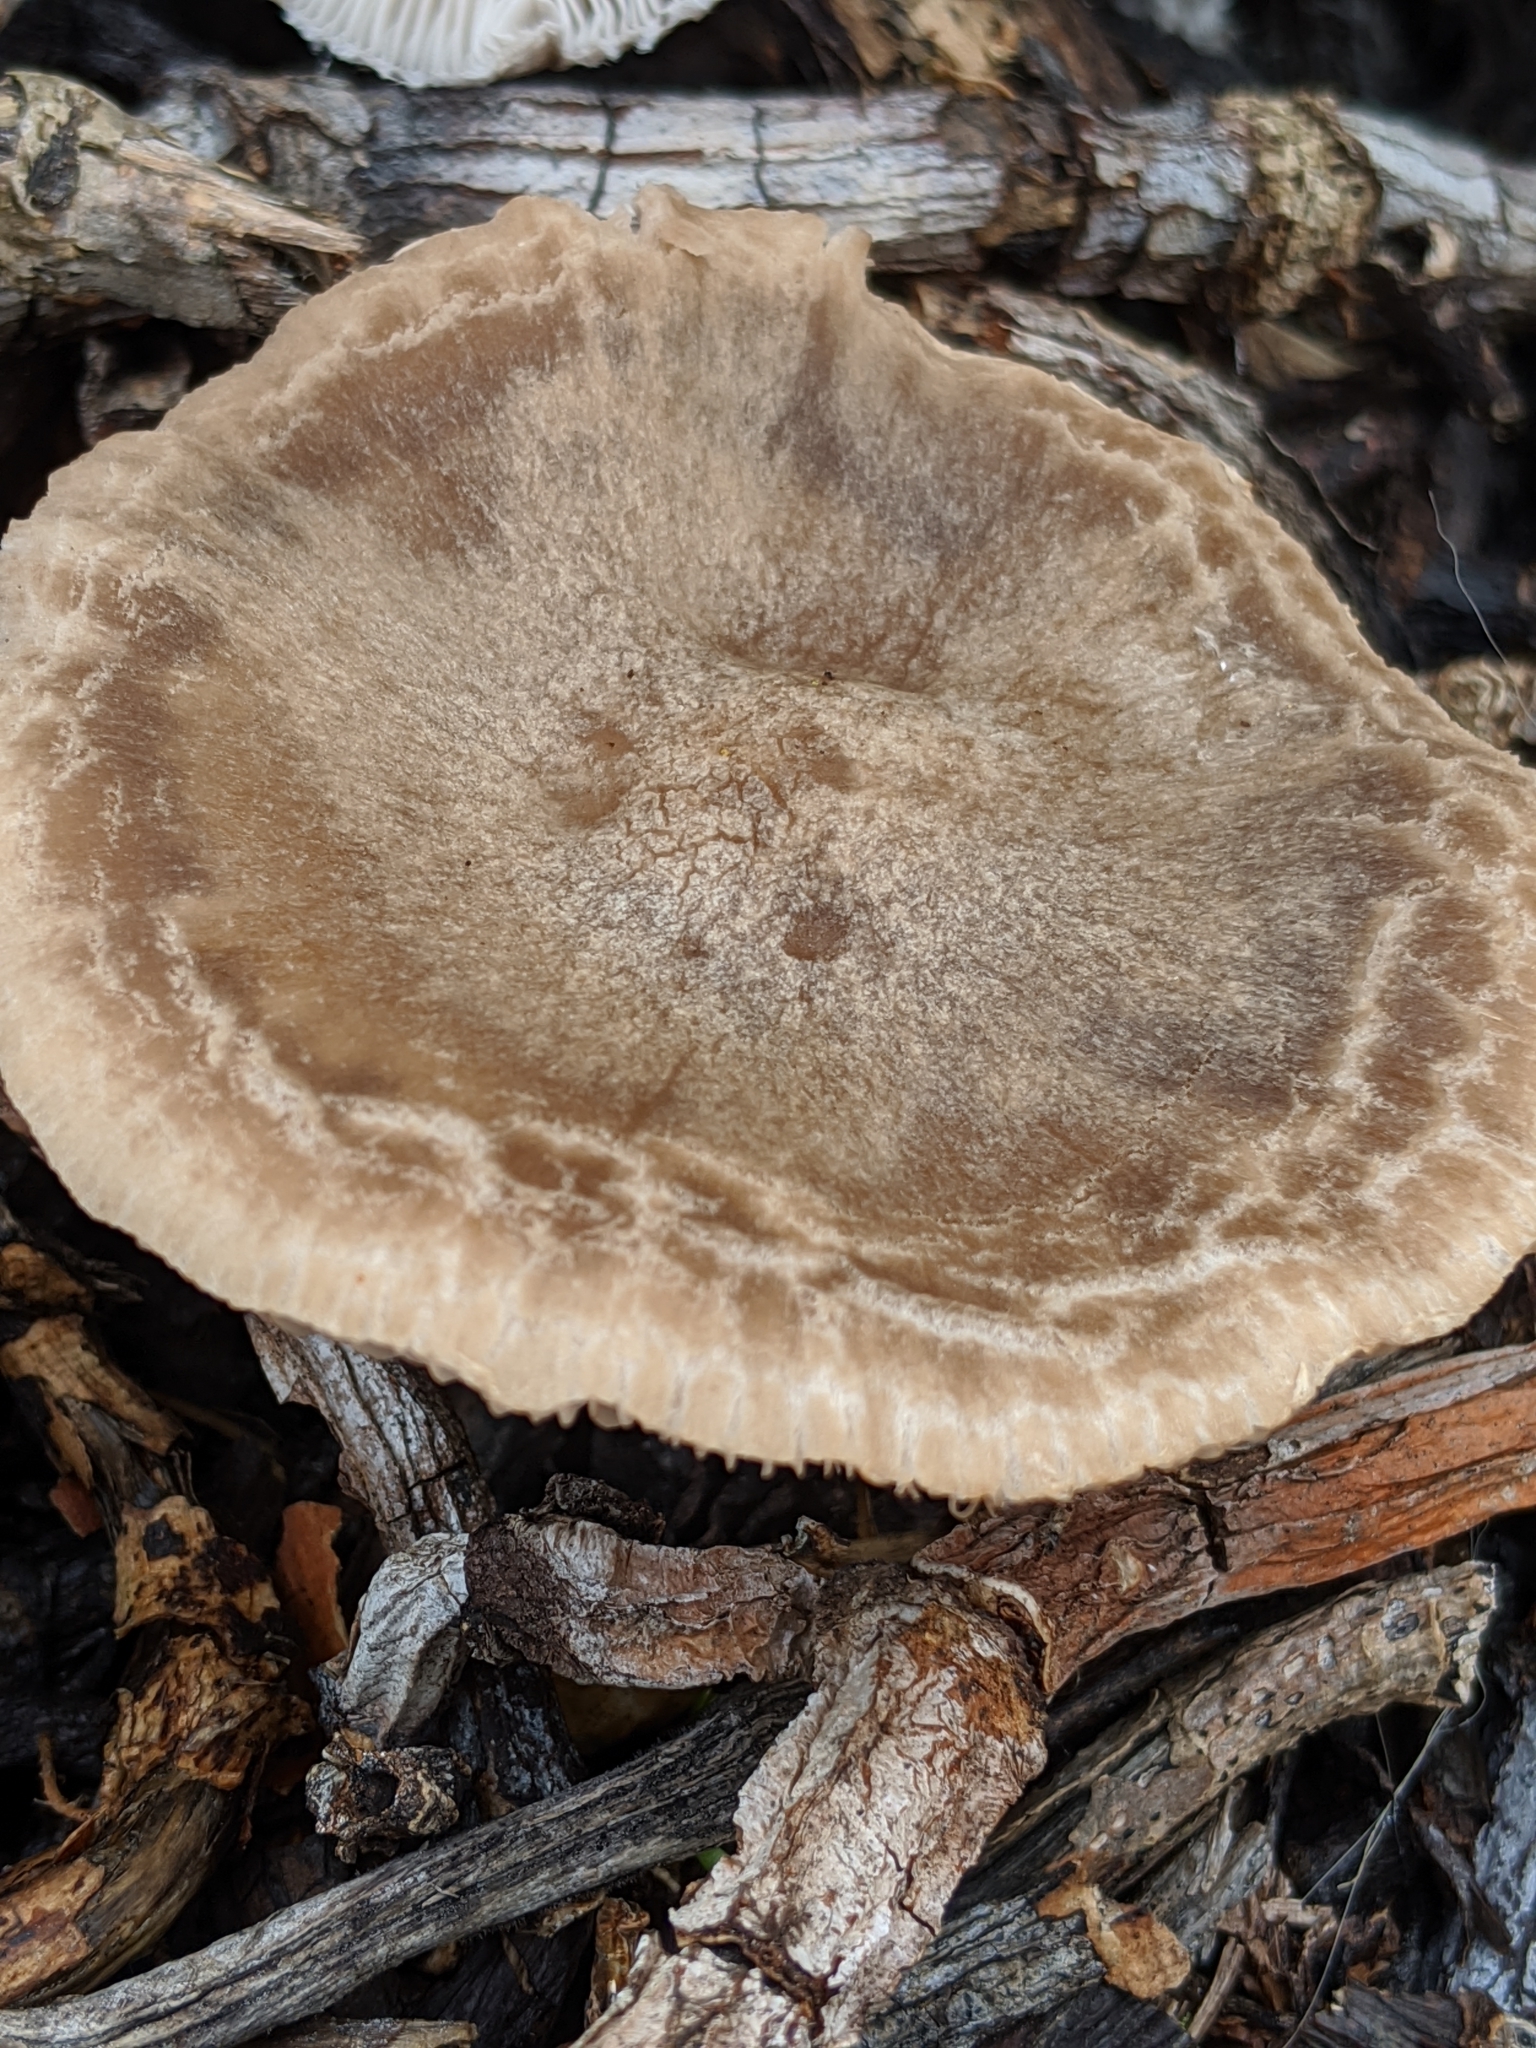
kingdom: Fungi
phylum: Basidiomycota
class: Agaricomycetes
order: Agaricales
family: Psathyrellaceae
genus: Psathyrella
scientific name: Psathyrella uliginicola
